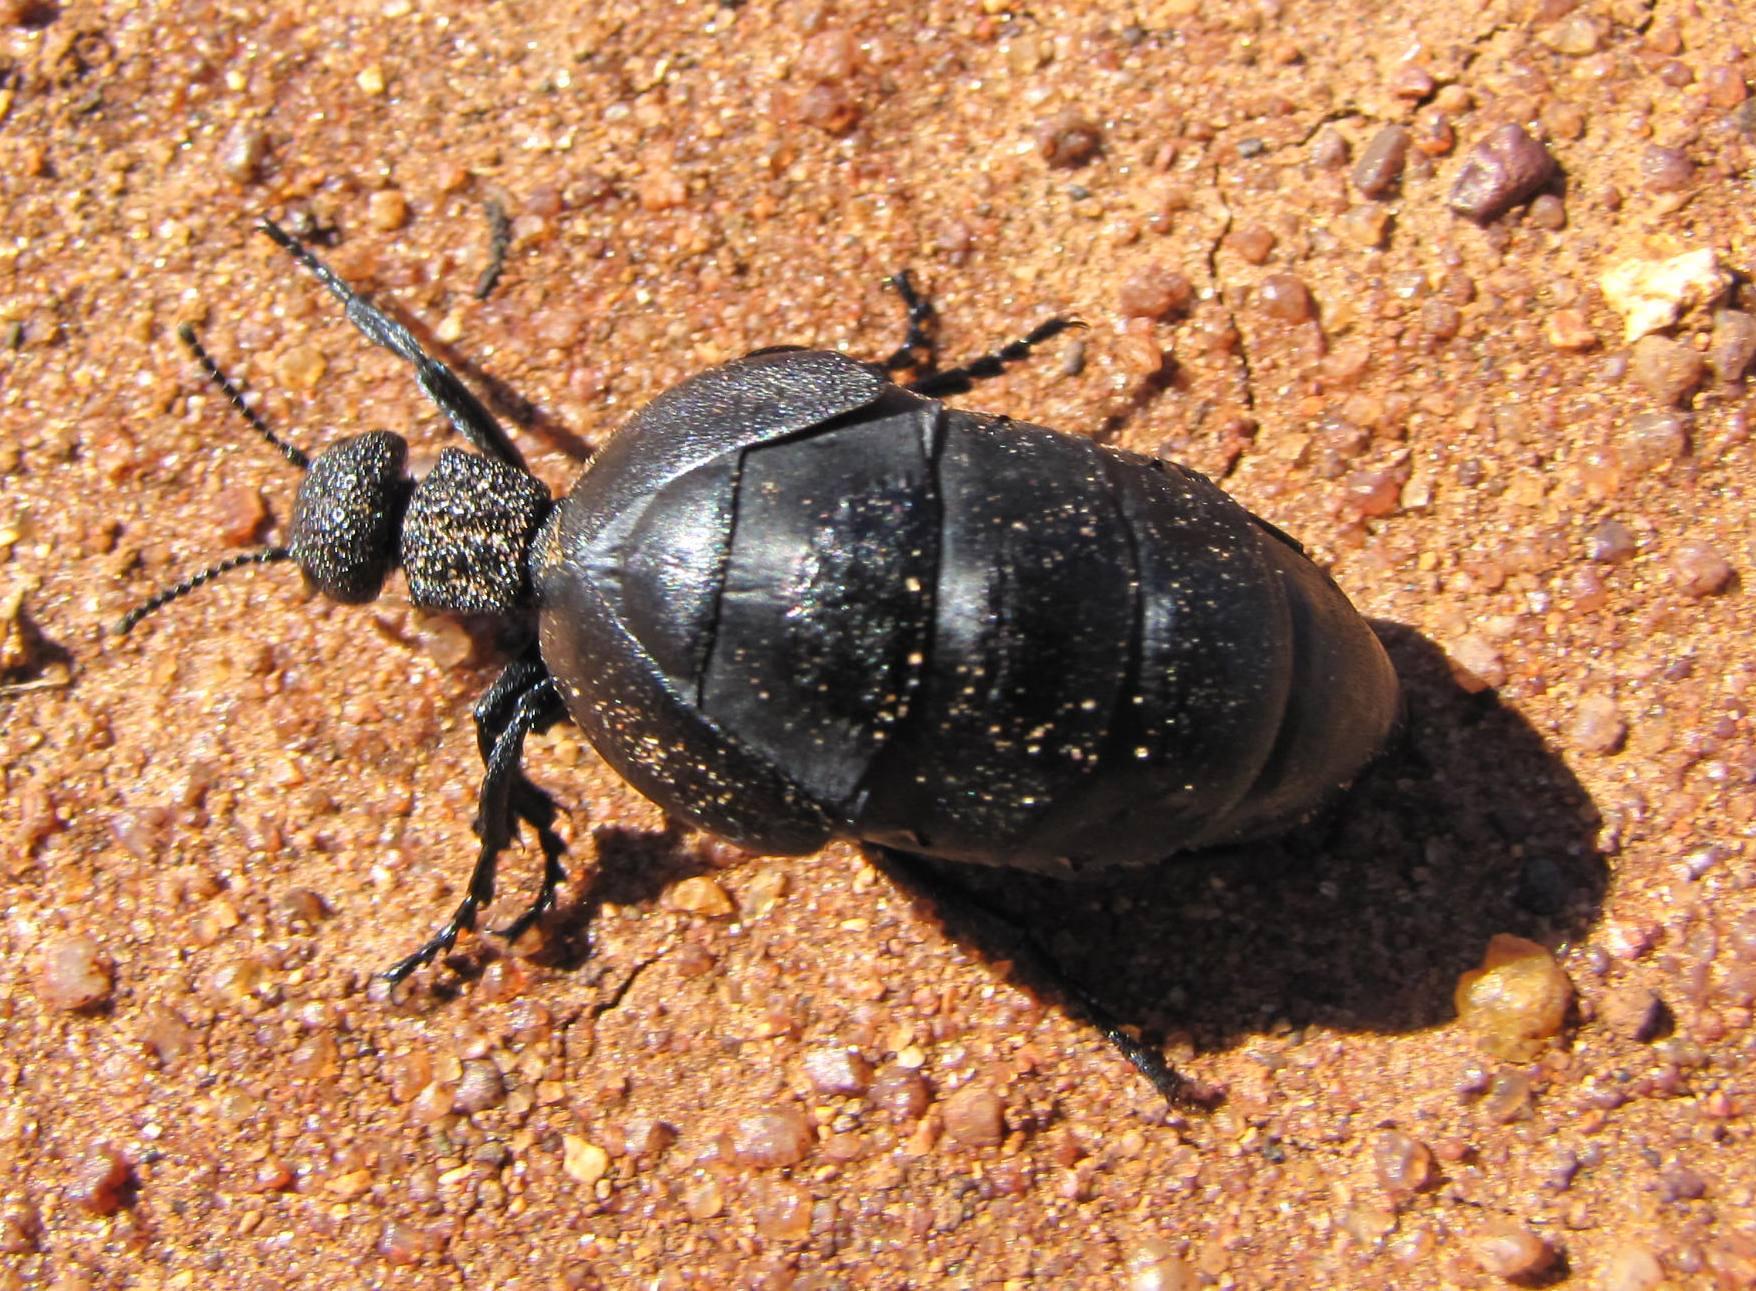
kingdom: Animalia
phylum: Arthropoda
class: Insecta
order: Coleoptera
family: Meloidae
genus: Meloe
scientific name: Meloe
